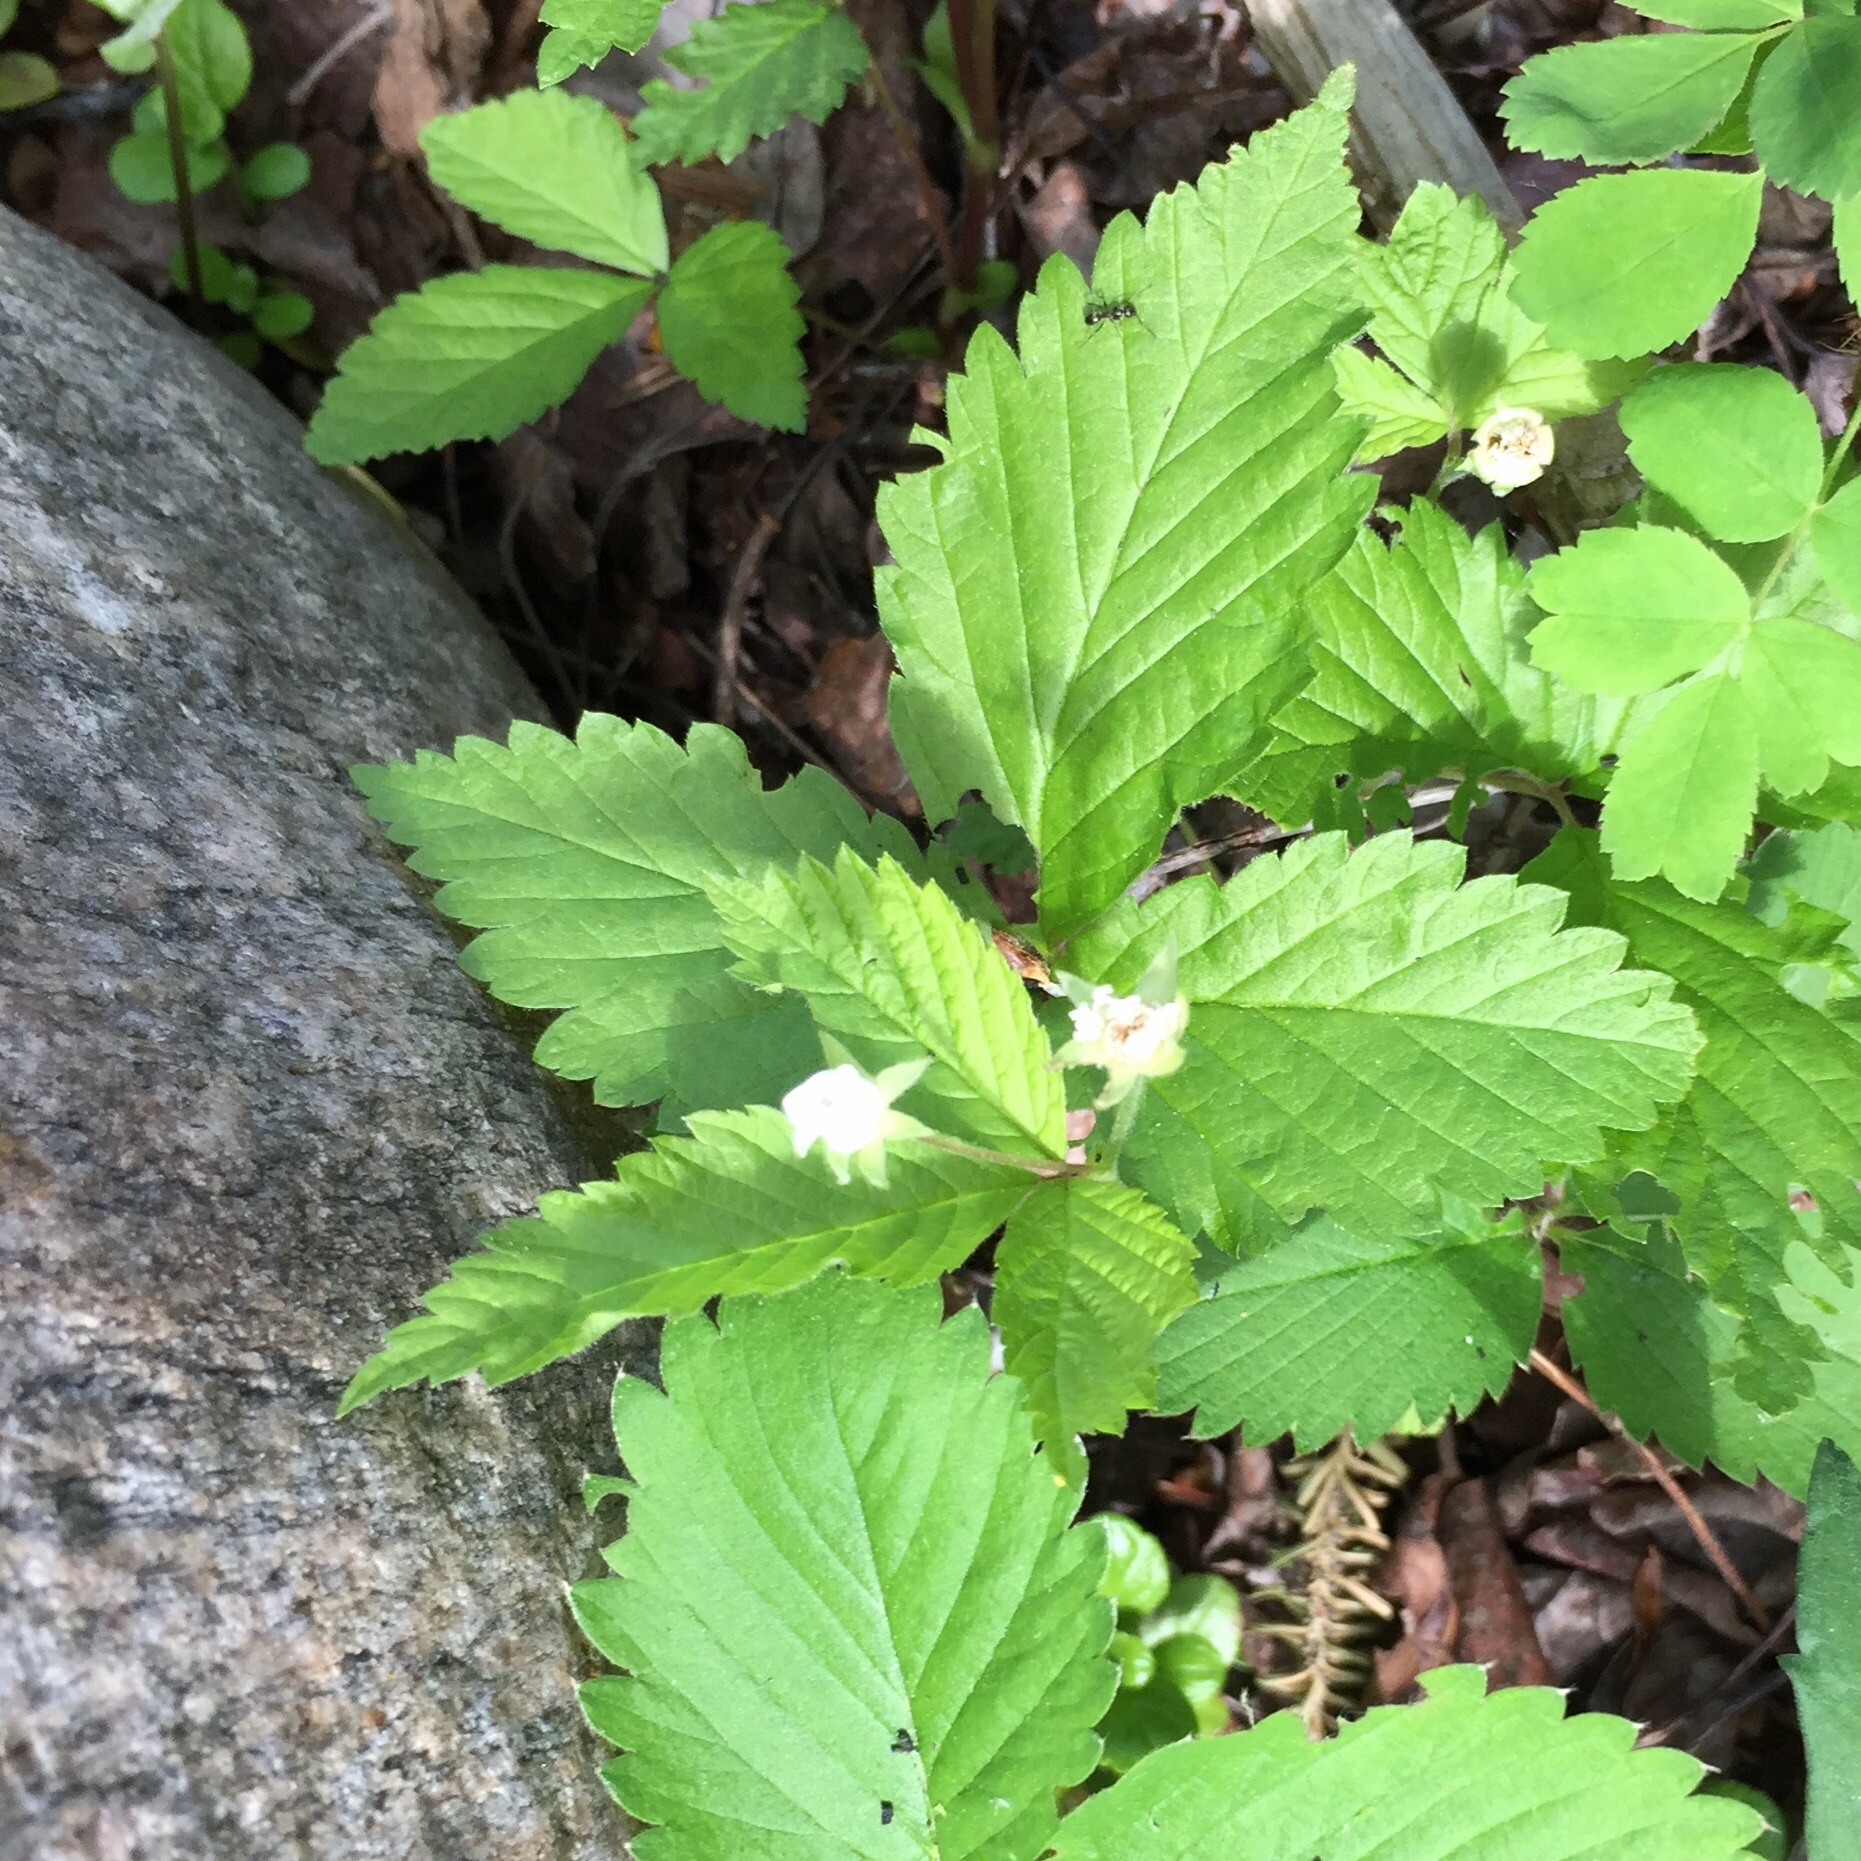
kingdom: Plantae
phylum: Tracheophyta
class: Magnoliopsida
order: Rosales
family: Rosaceae
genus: Rubus
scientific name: Rubus pubescens
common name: Dwarf raspberry
